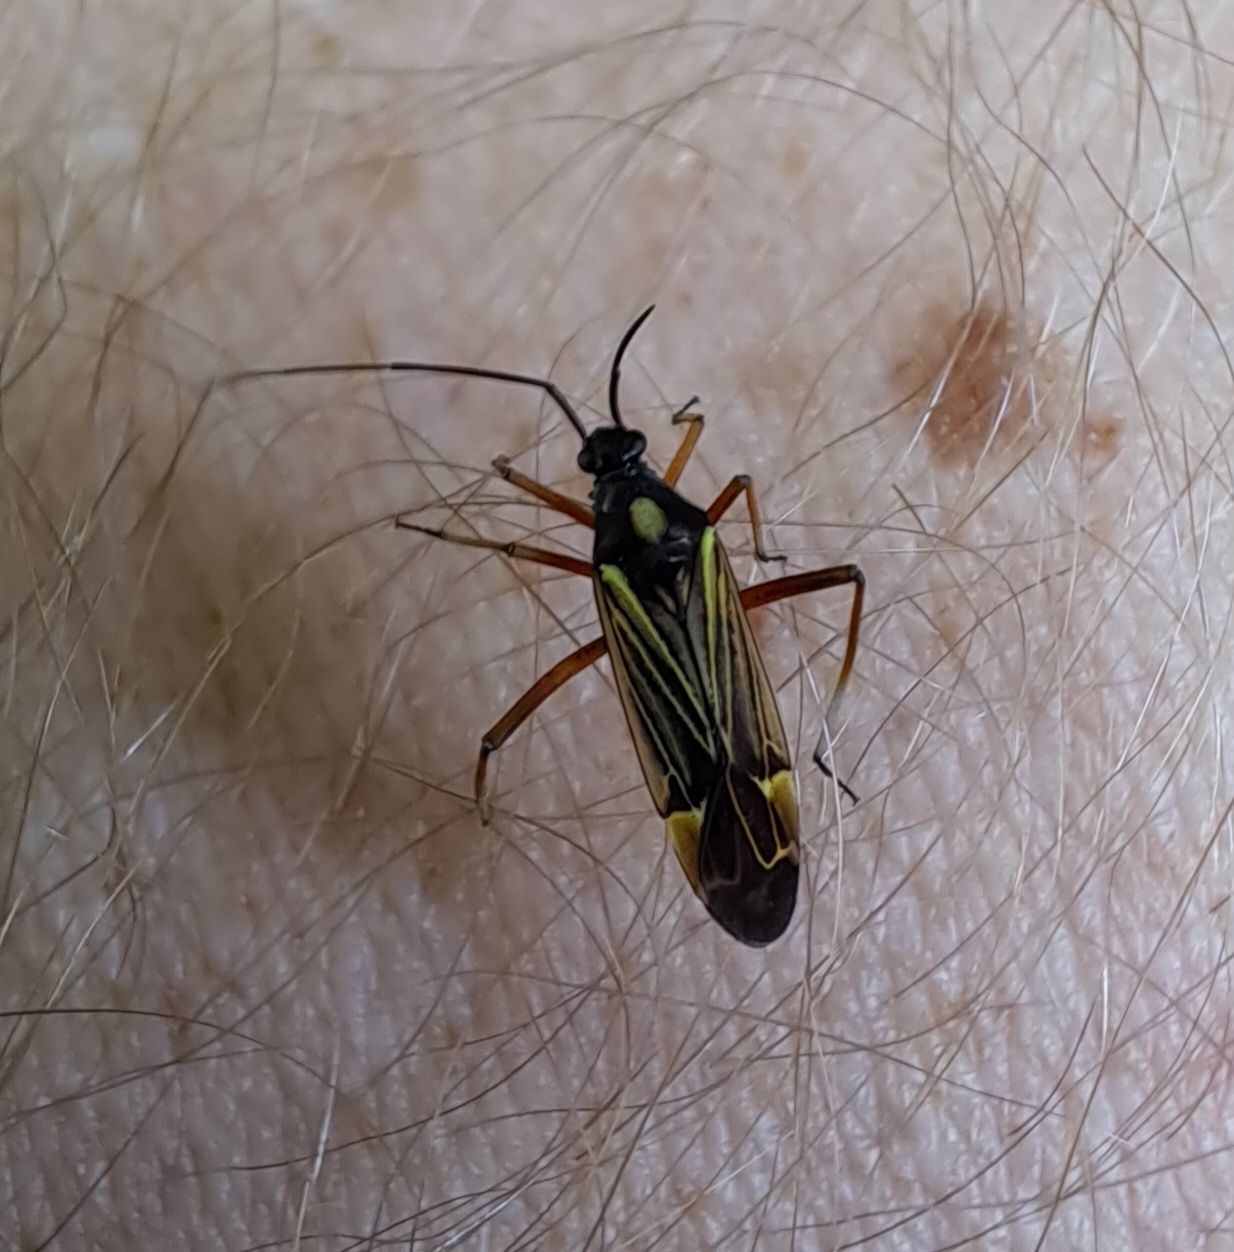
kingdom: Animalia
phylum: Arthropoda
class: Insecta
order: Hemiptera
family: Miridae
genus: Miris
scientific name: Miris striatus
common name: Fine streaked bugkin
